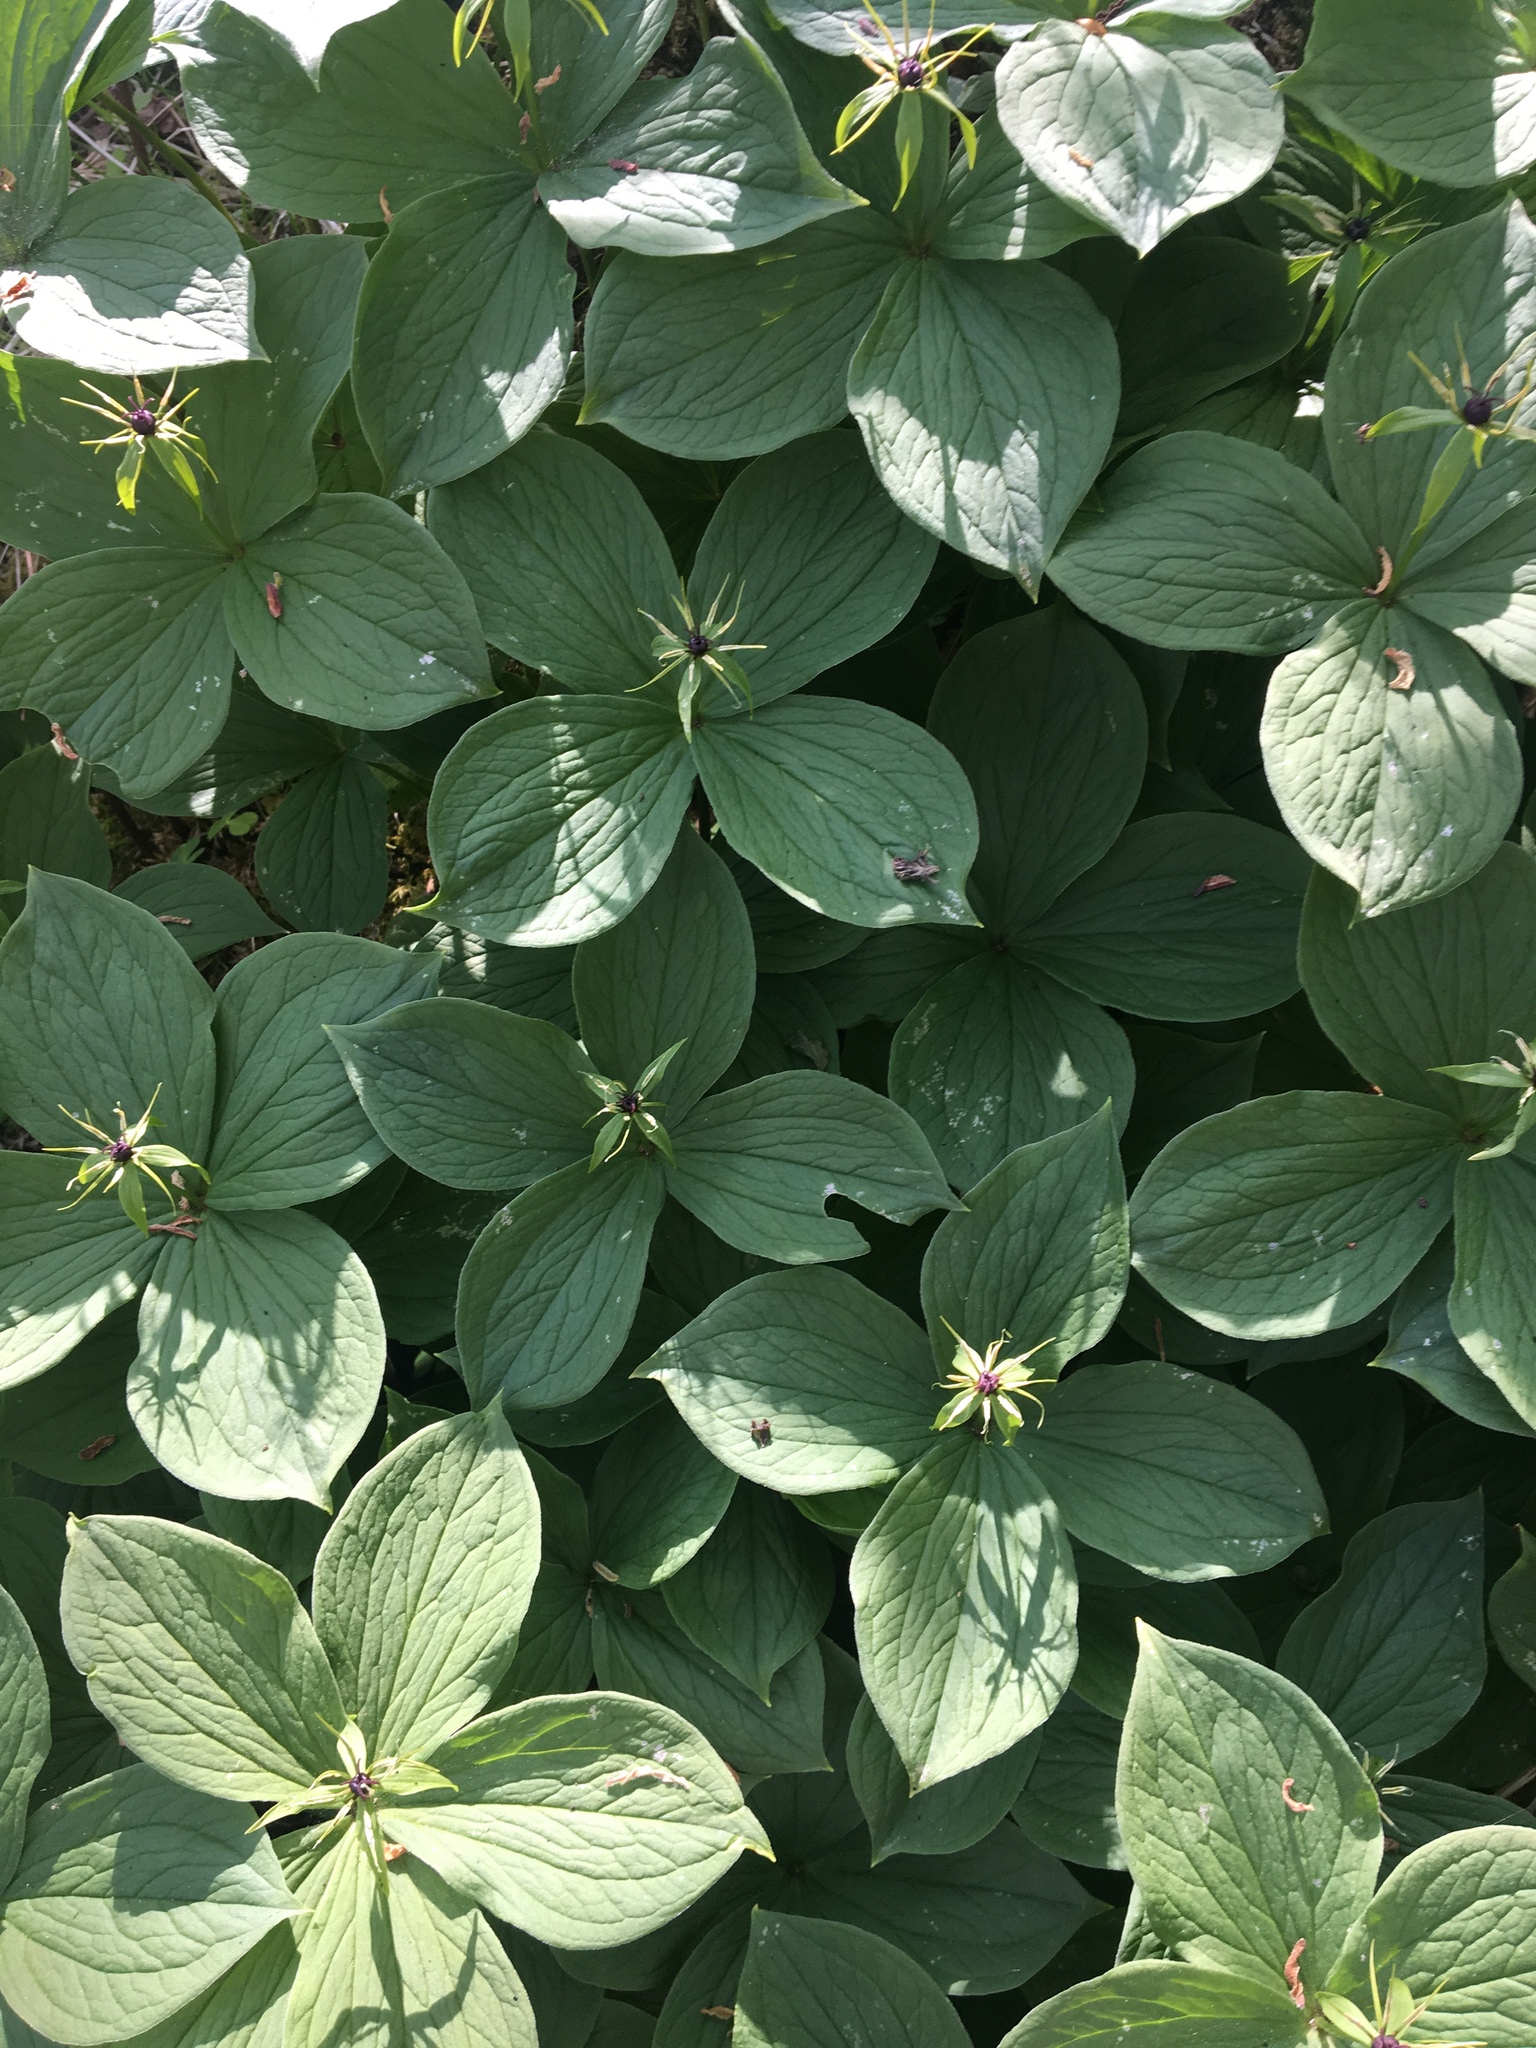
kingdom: Plantae
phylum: Tracheophyta
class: Liliopsida
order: Liliales
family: Melanthiaceae
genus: Paris
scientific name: Paris quadrifolia
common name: Herb-paris
